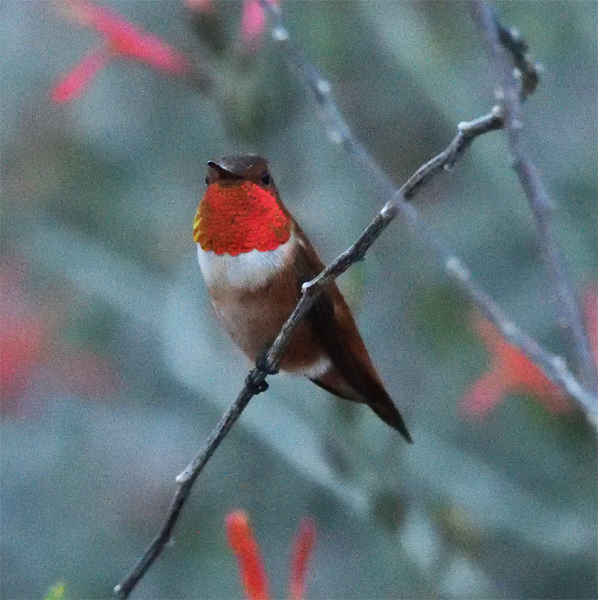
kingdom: Animalia
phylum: Chordata
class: Aves
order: Apodiformes
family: Trochilidae
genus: Selasphorus
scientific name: Selasphorus rufus
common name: Rufous hummingbird
